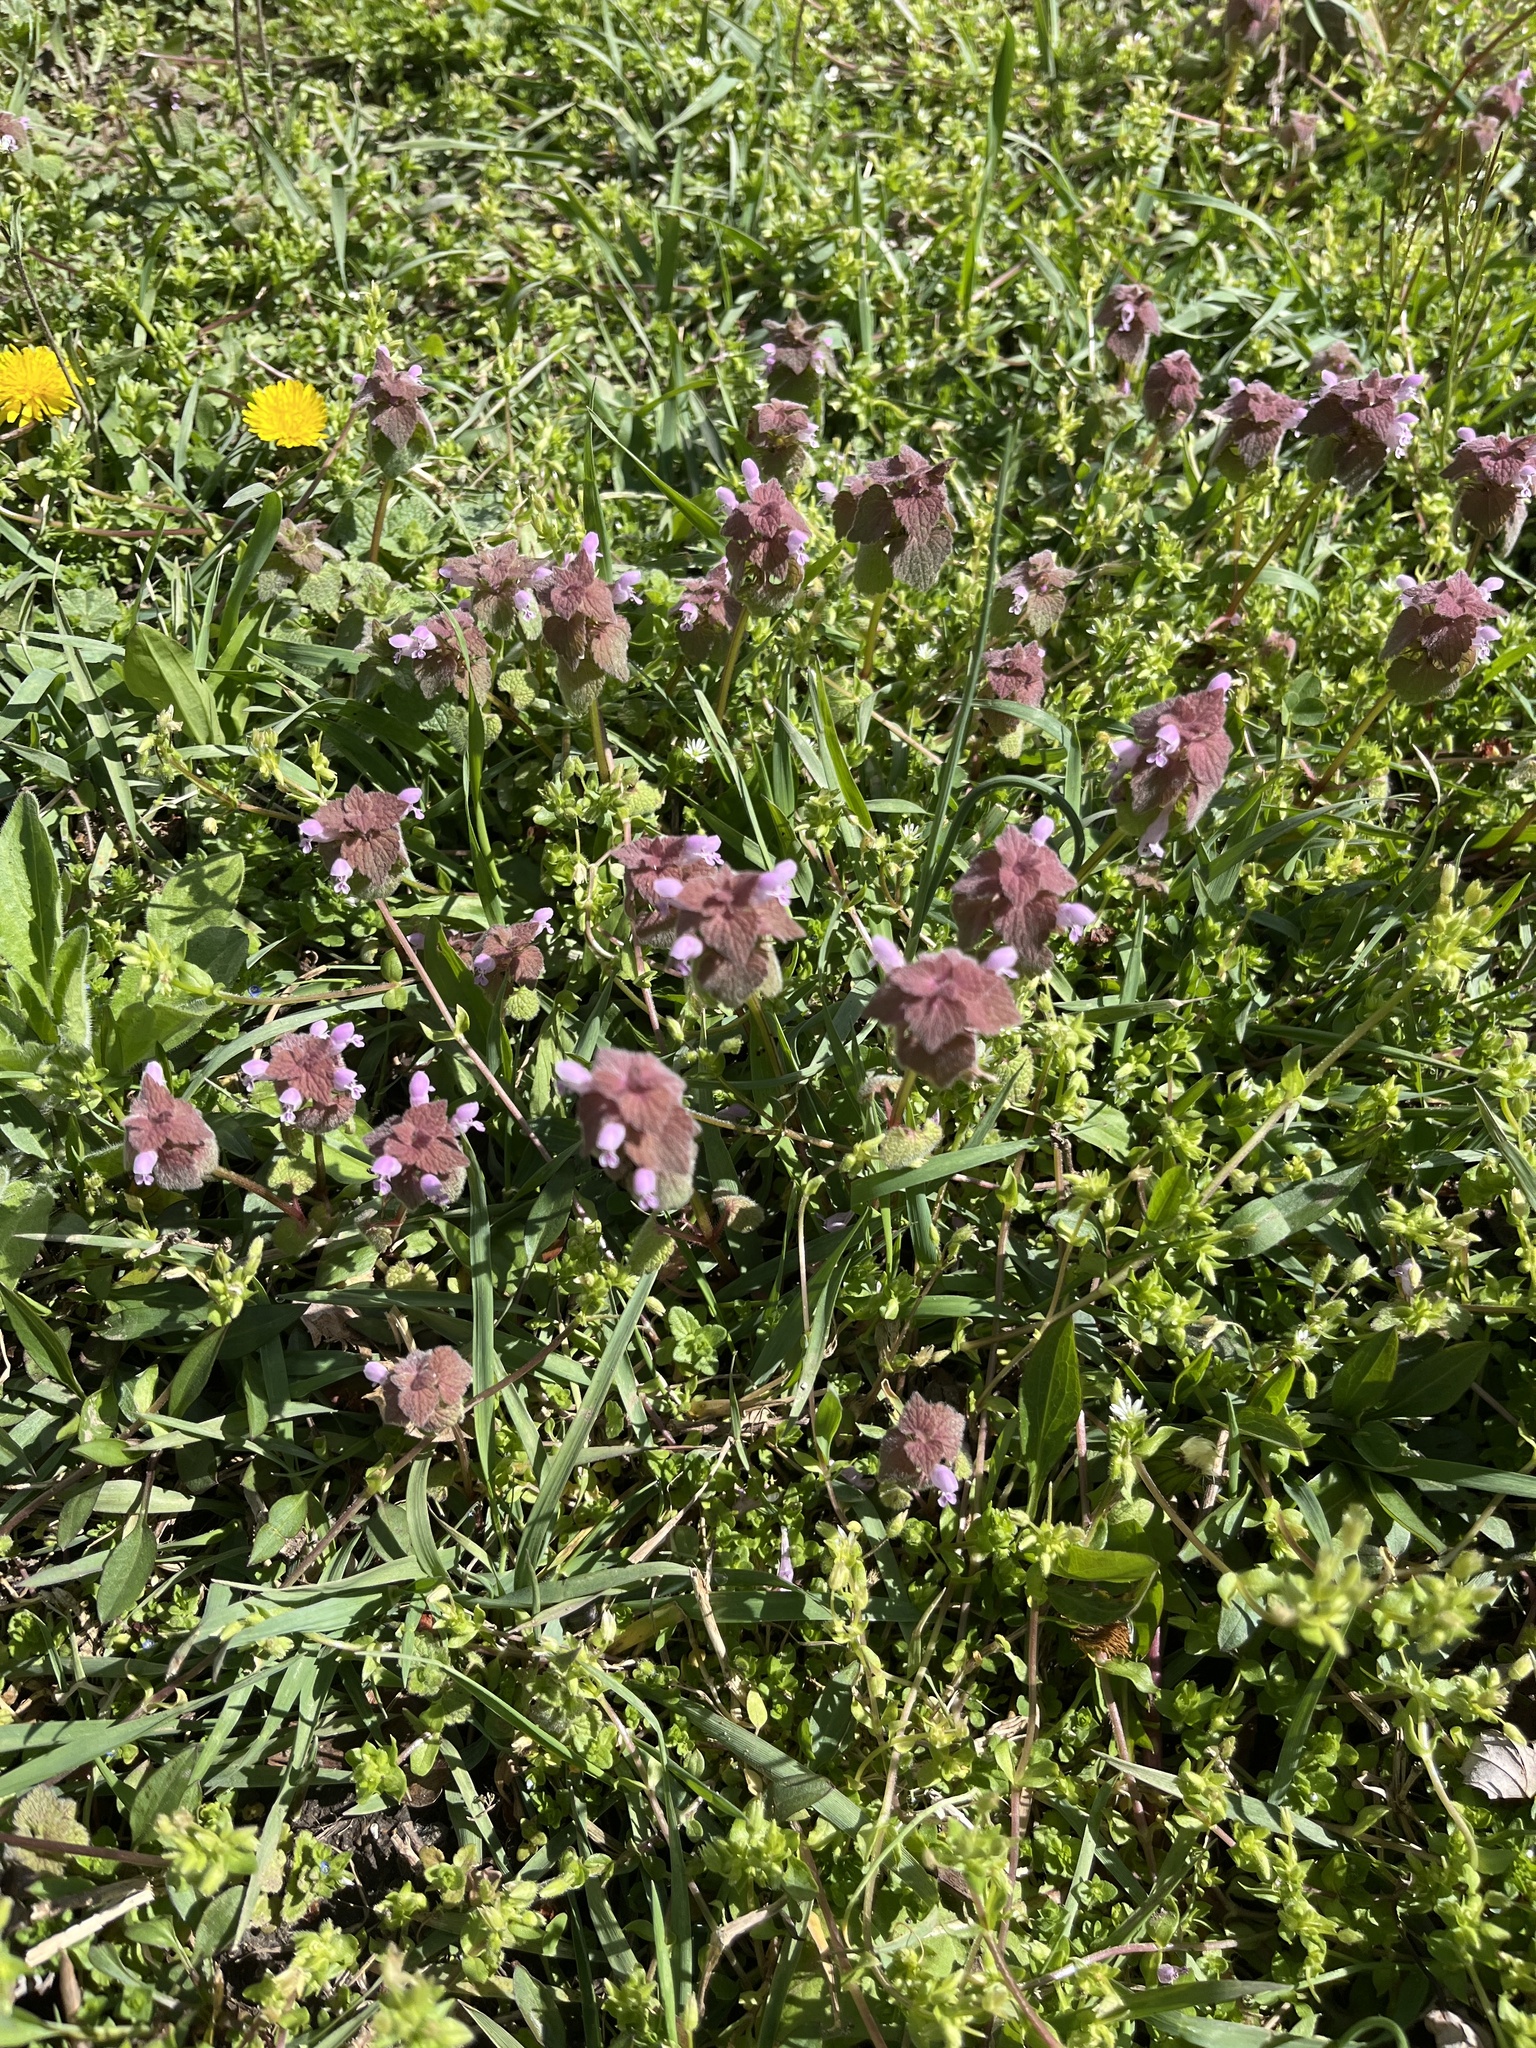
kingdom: Plantae
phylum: Tracheophyta
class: Magnoliopsida
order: Lamiales
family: Lamiaceae
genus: Lamium
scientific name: Lamium purpureum
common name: Red dead-nettle
